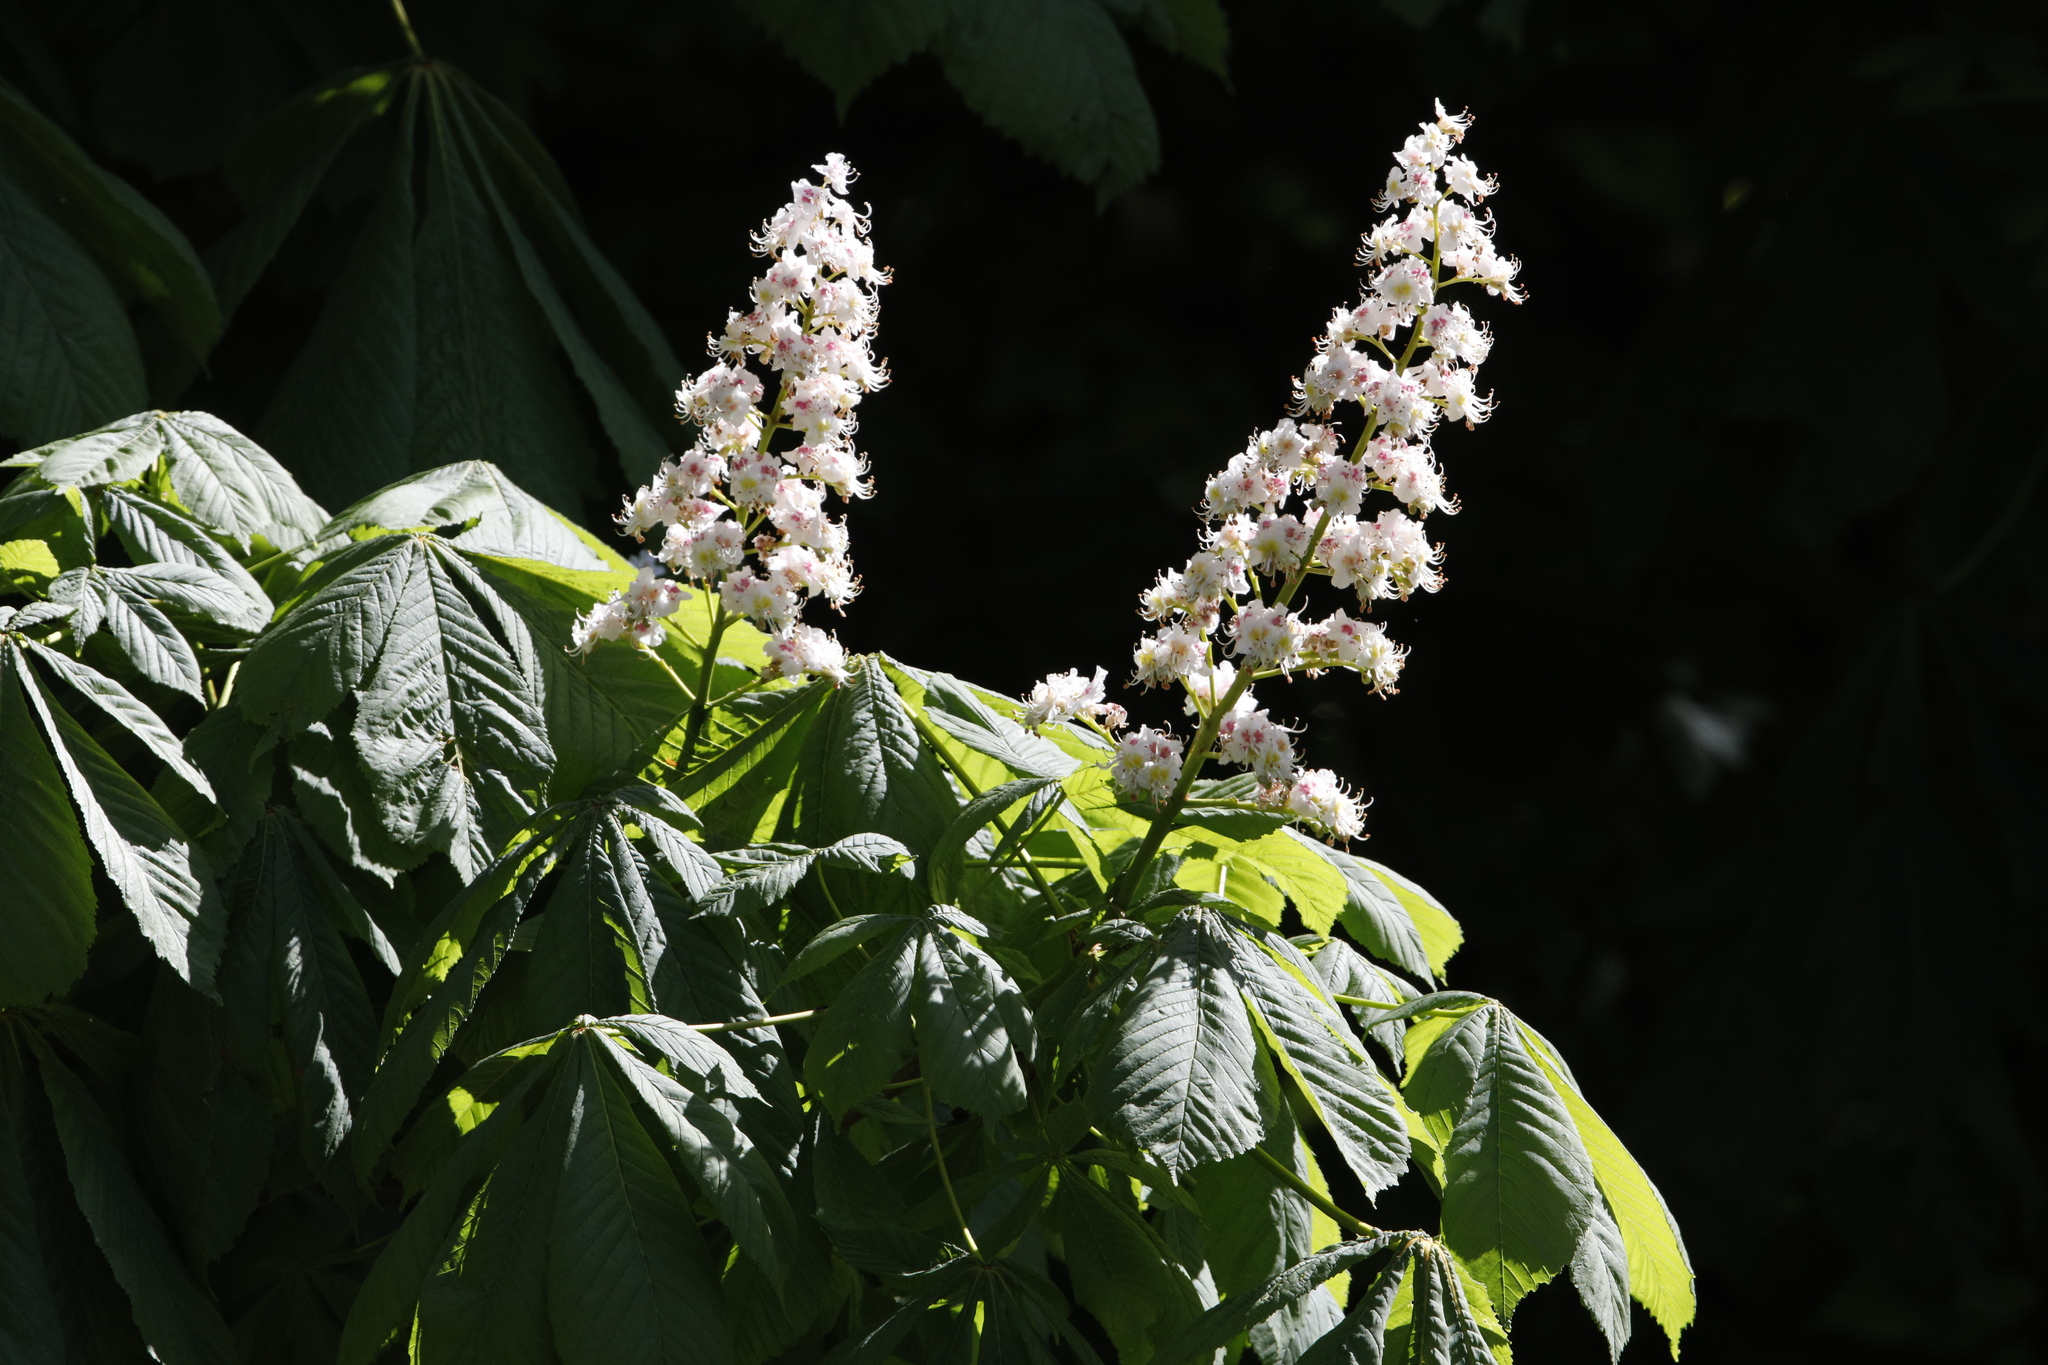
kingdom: Plantae
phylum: Tracheophyta
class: Magnoliopsida
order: Sapindales
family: Sapindaceae
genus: Aesculus
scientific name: Aesculus hippocastanum
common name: Horse-chestnut
